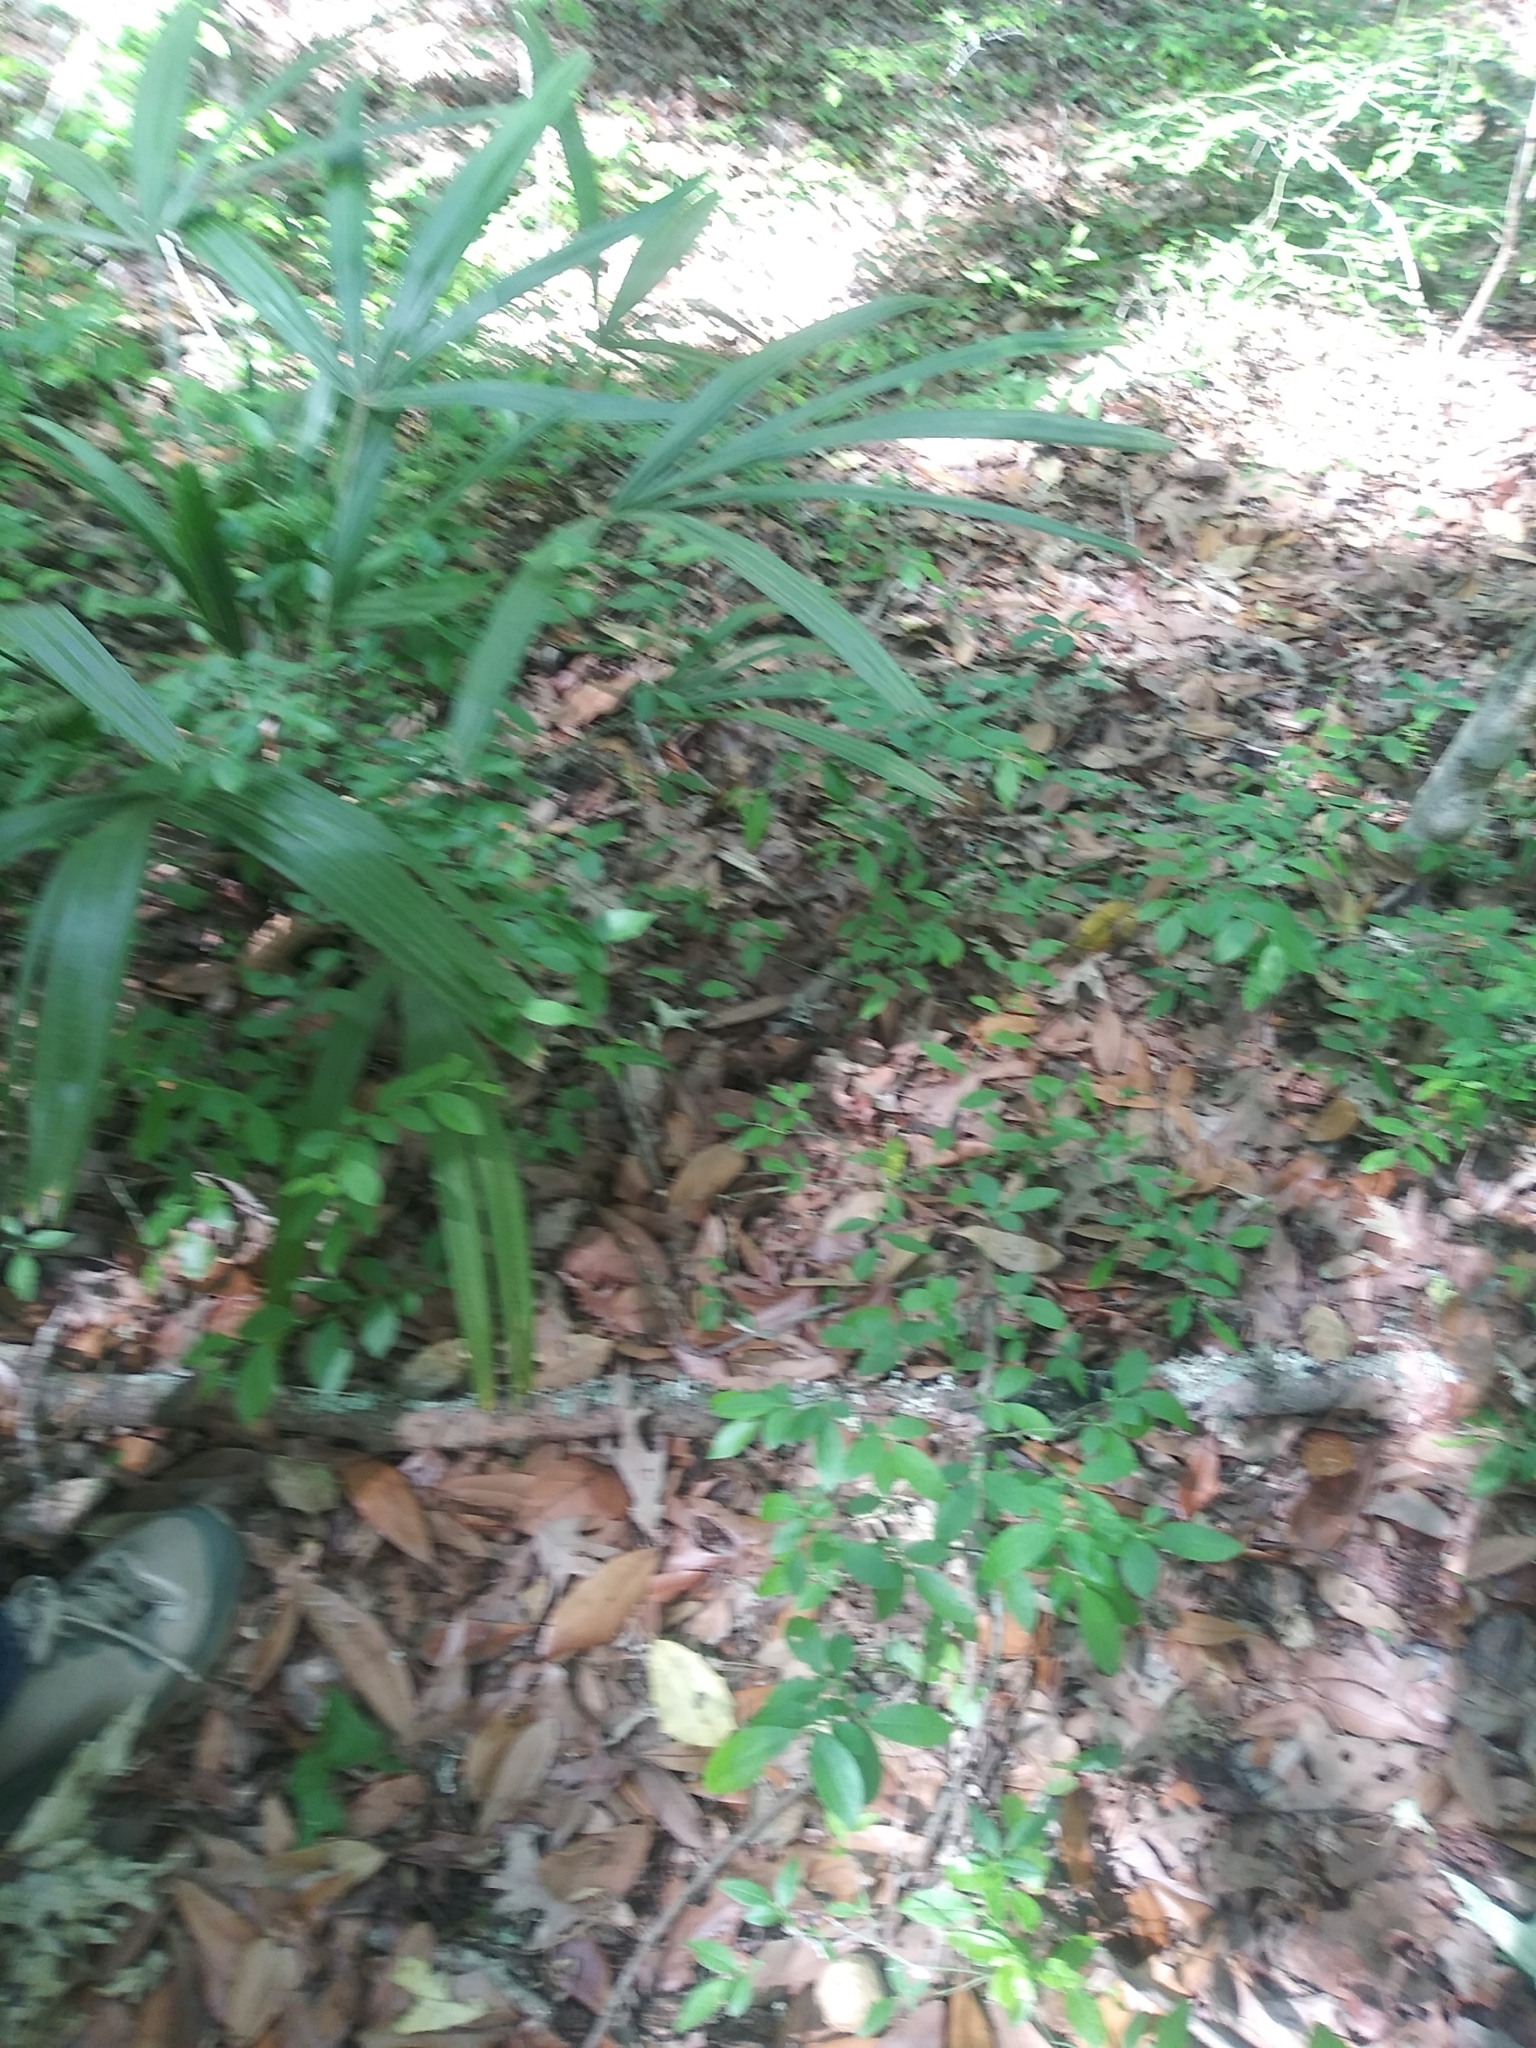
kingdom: Plantae
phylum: Tracheophyta
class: Liliopsida
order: Arecales
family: Arecaceae
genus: Rhapidophyllum
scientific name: Rhapidophyllum hystrix
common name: Porcupine palm
